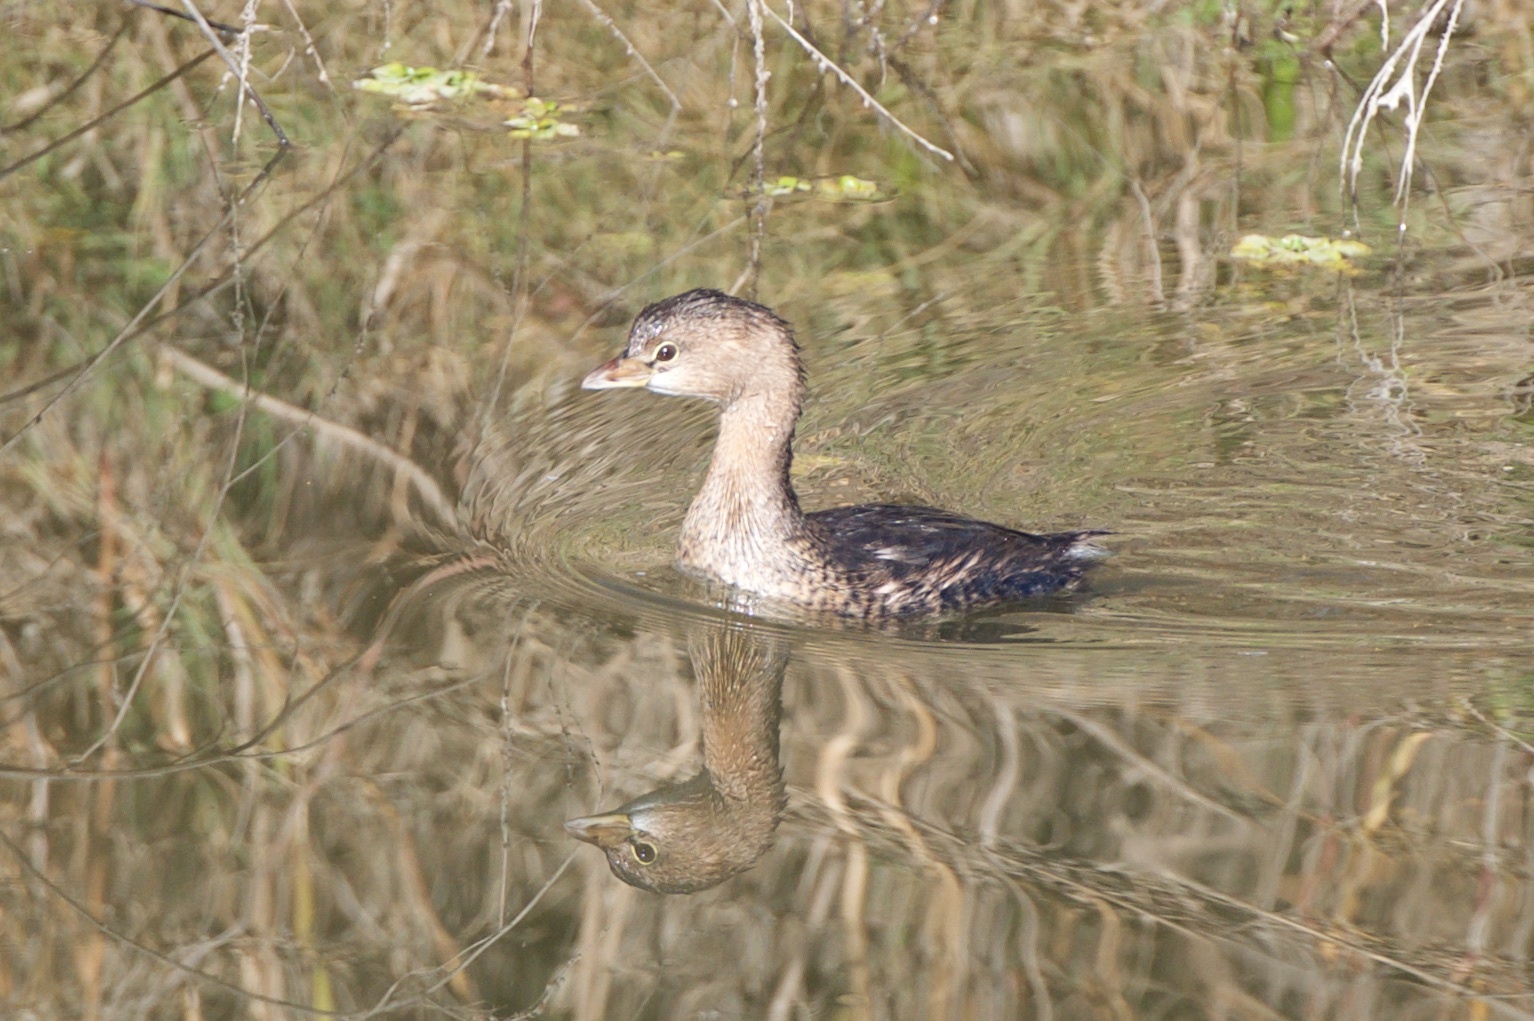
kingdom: Animalia
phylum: Chordata
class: Aves
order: Podicipediformes
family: Podicipedidae
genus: Podilymbus
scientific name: Podilymbus podiceps
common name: Pied-billed grebe
